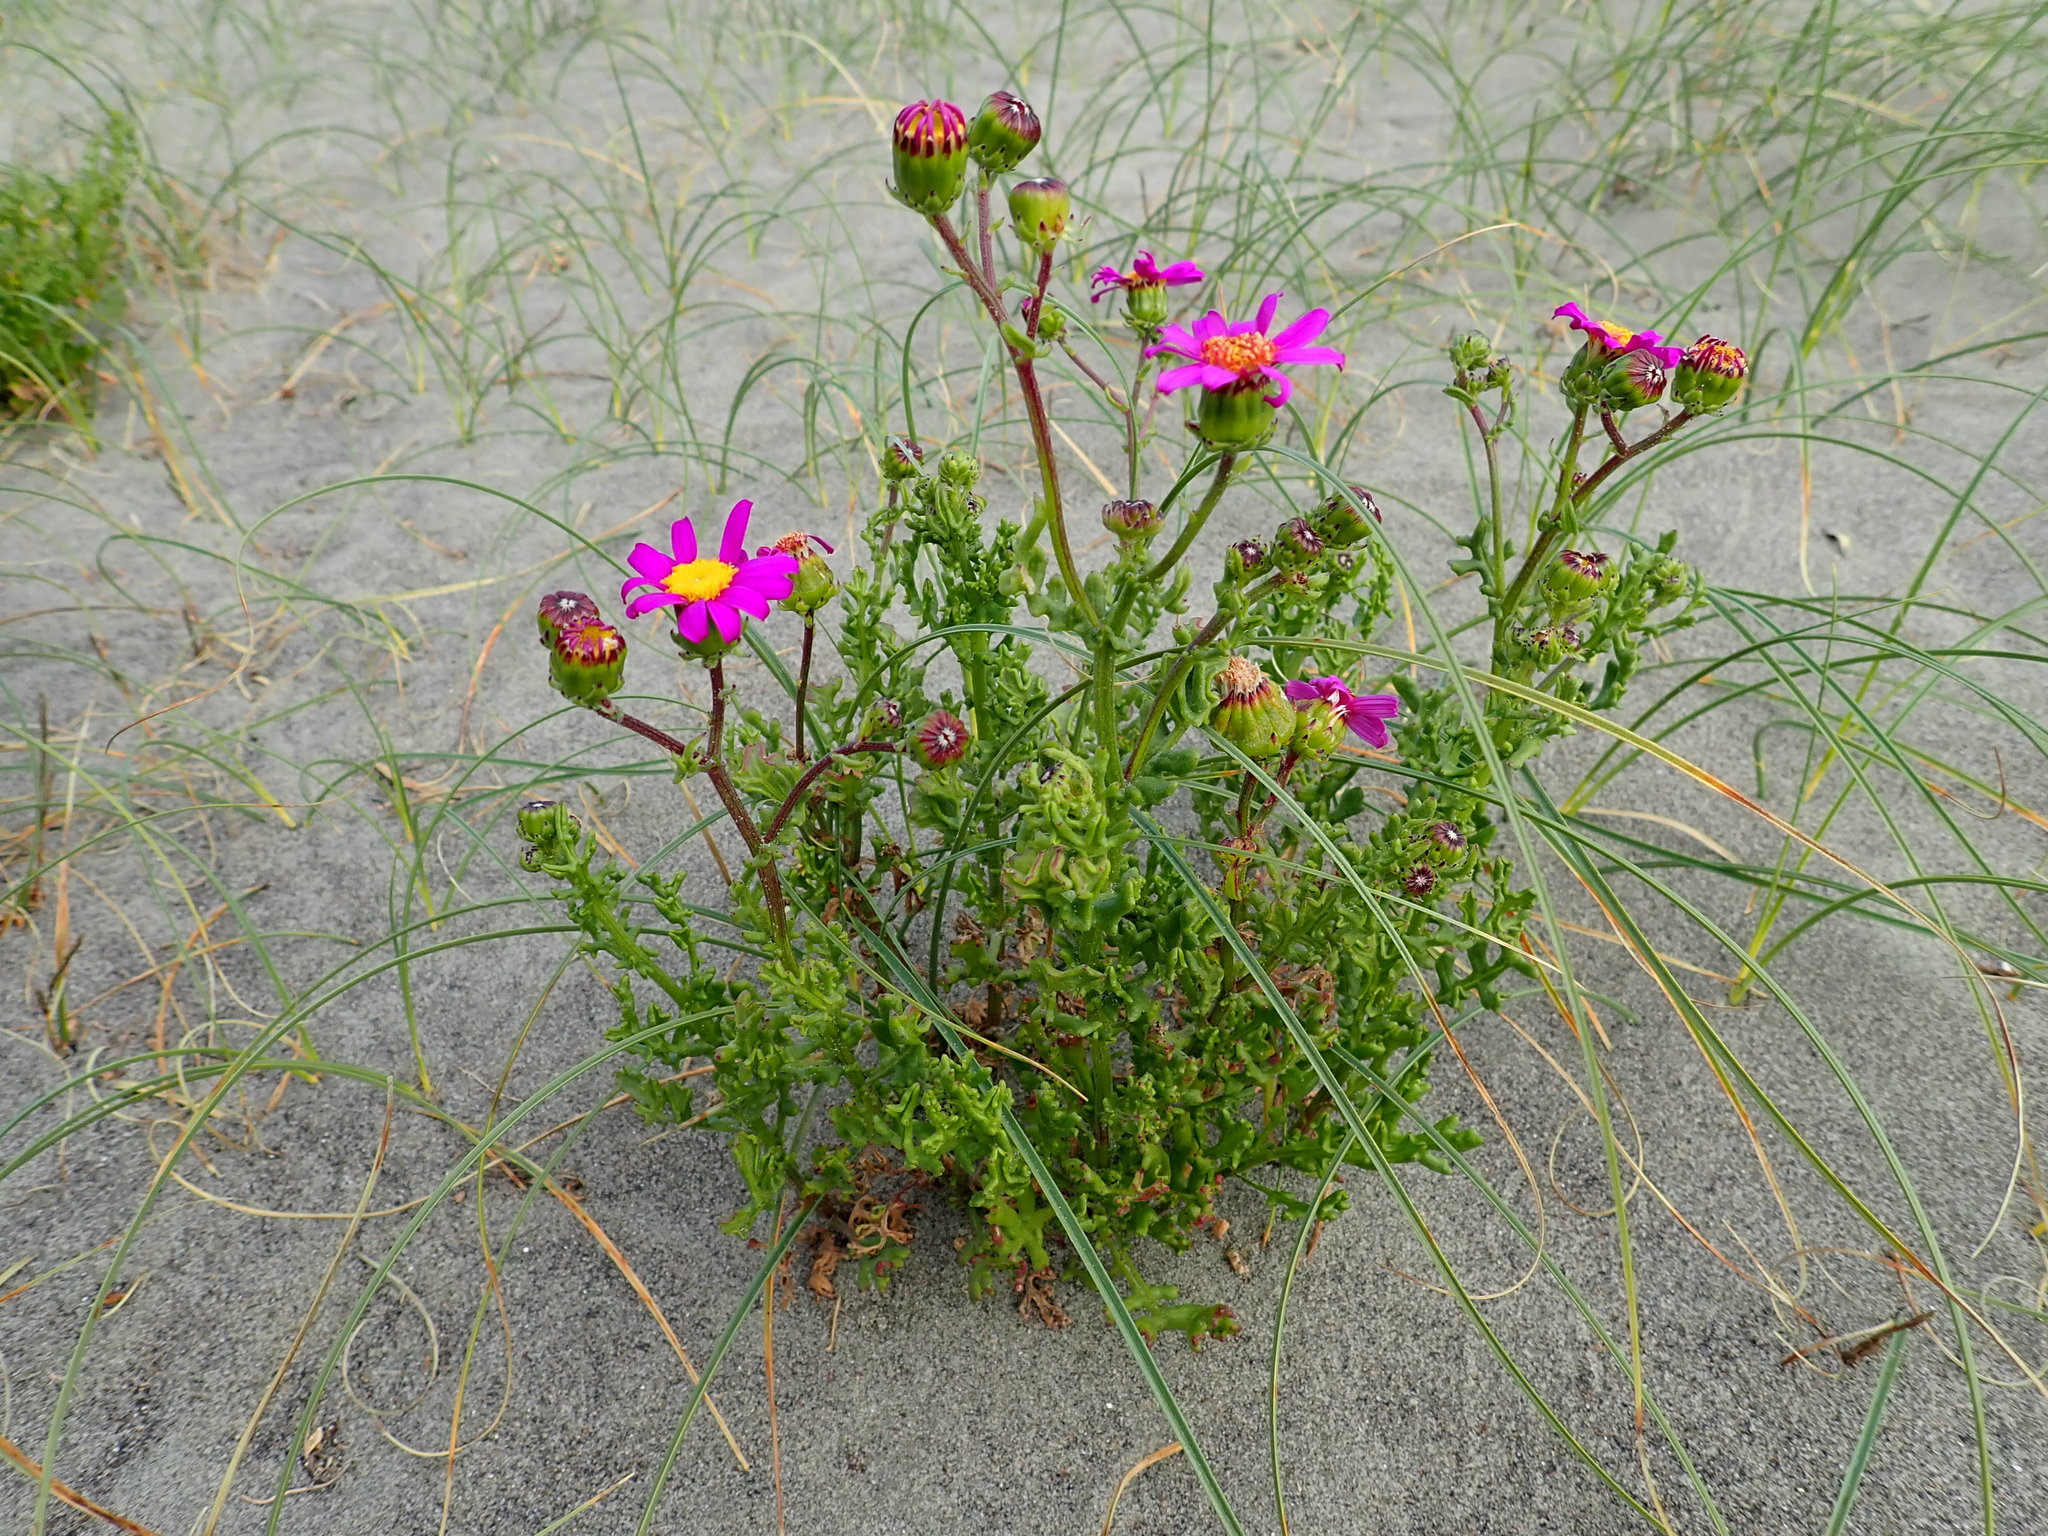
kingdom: Plantae
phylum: Tracheophyta
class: Magnoliopsida
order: Asterales
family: Asteraceae
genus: Senecio
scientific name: Senecio elegans
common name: Purple groundsel
